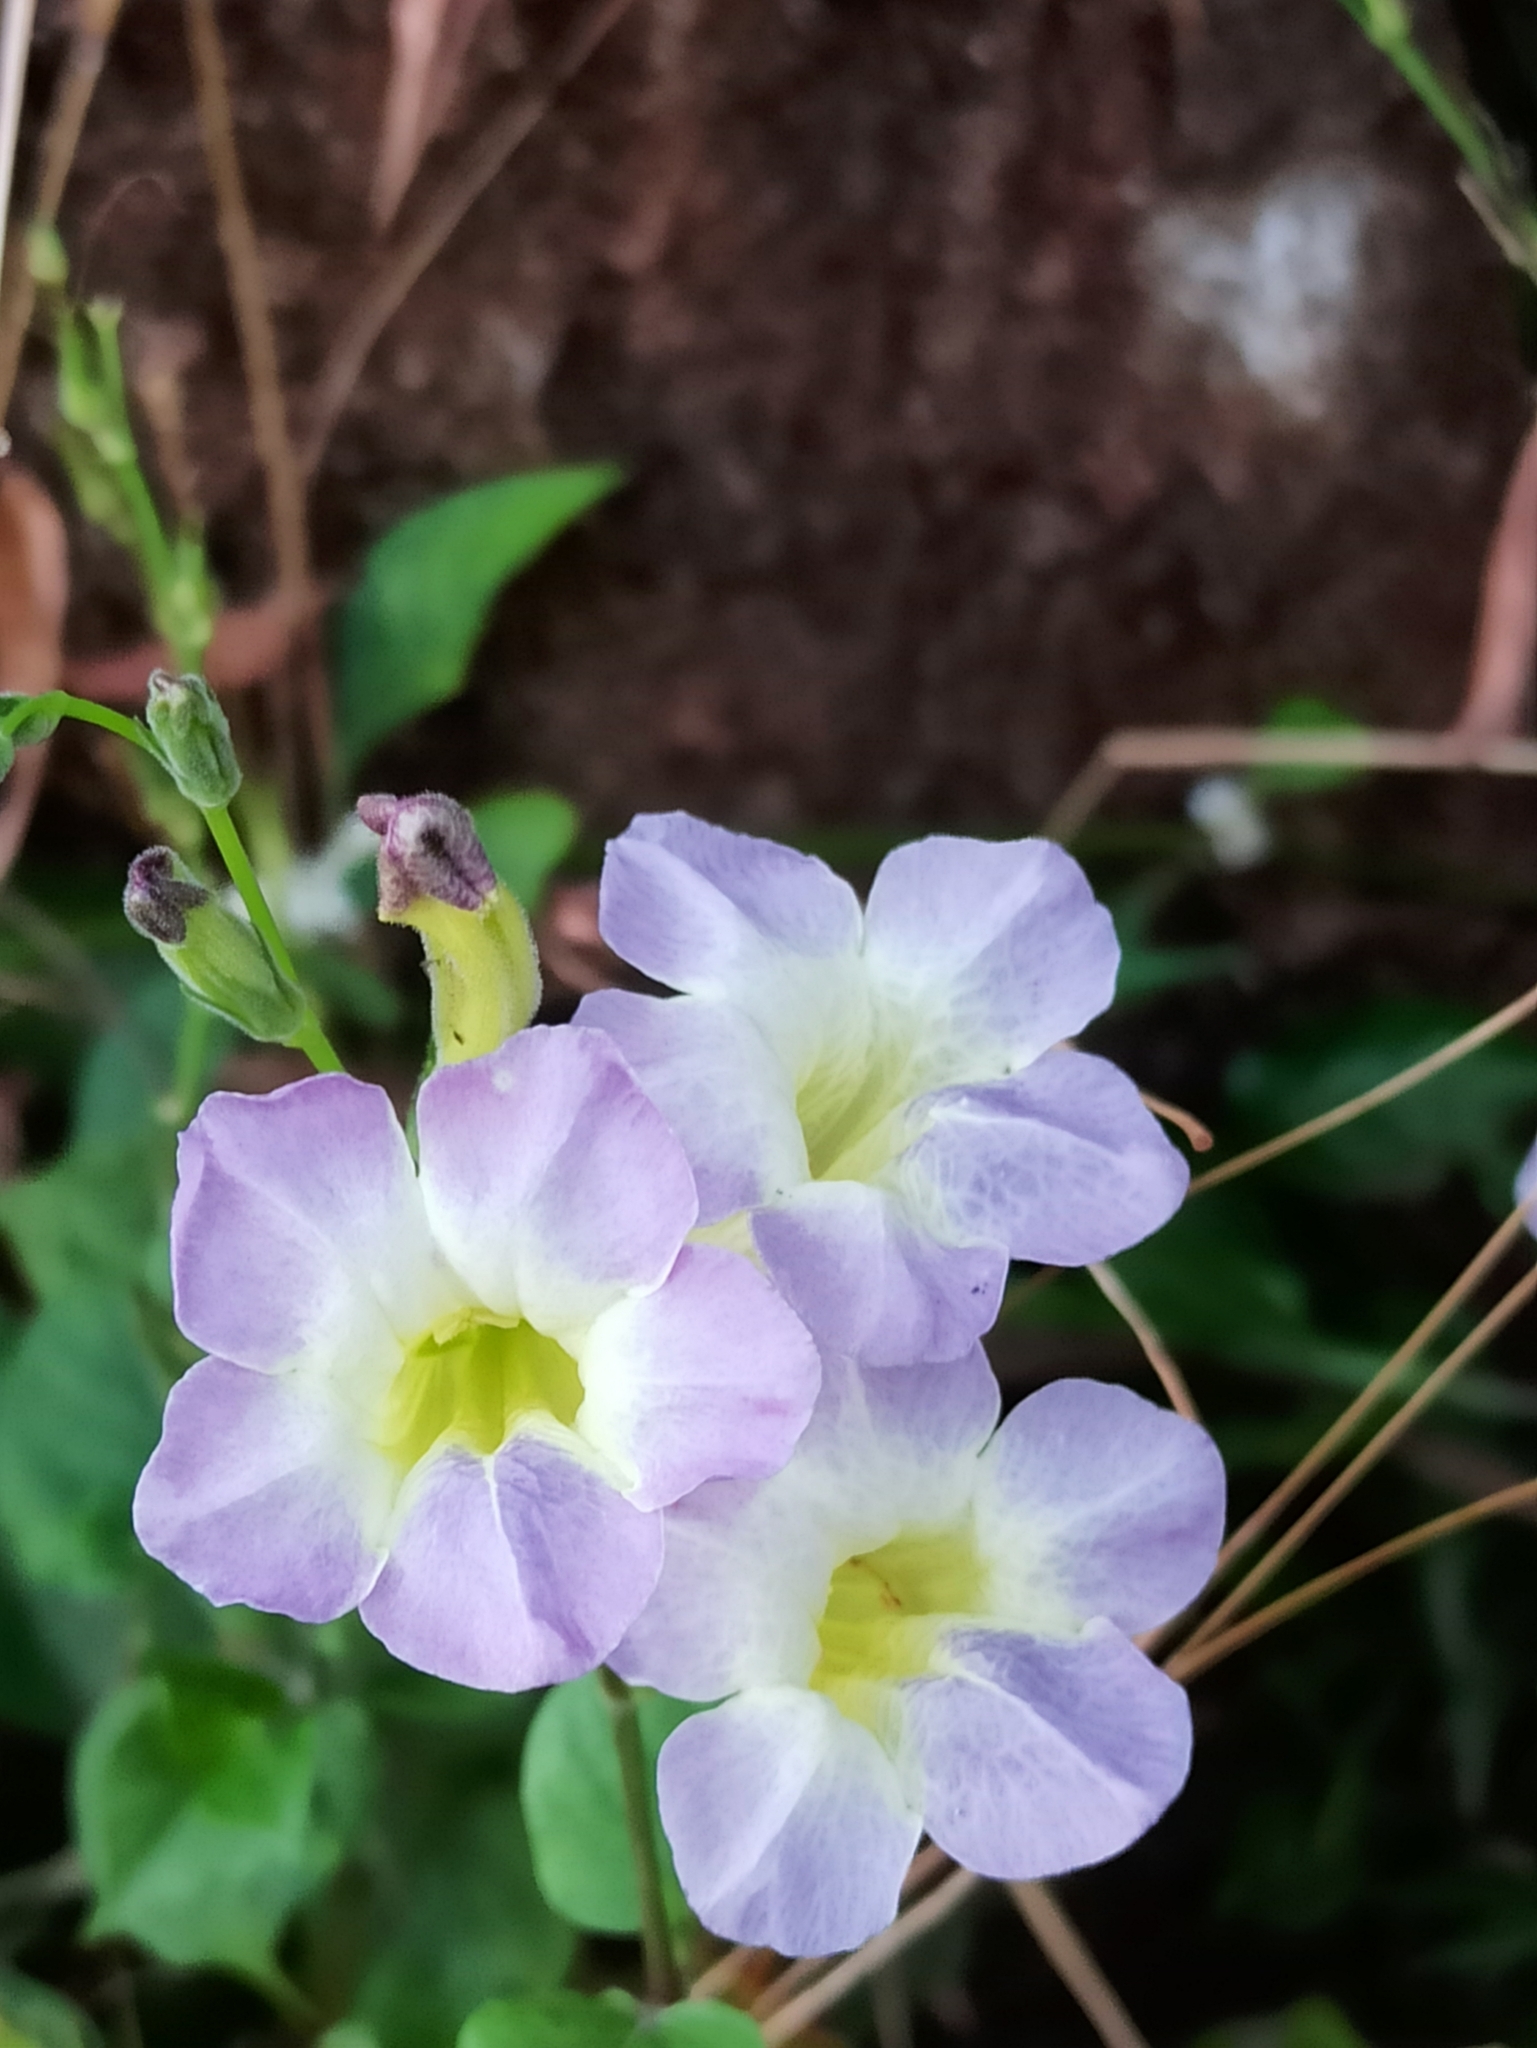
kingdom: Plantae
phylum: Tracheophyta
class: Magnoliopsida
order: Lamiales
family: Acanthaceae
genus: Asystasia
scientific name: Asystasia gangetica
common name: Chinese violet
